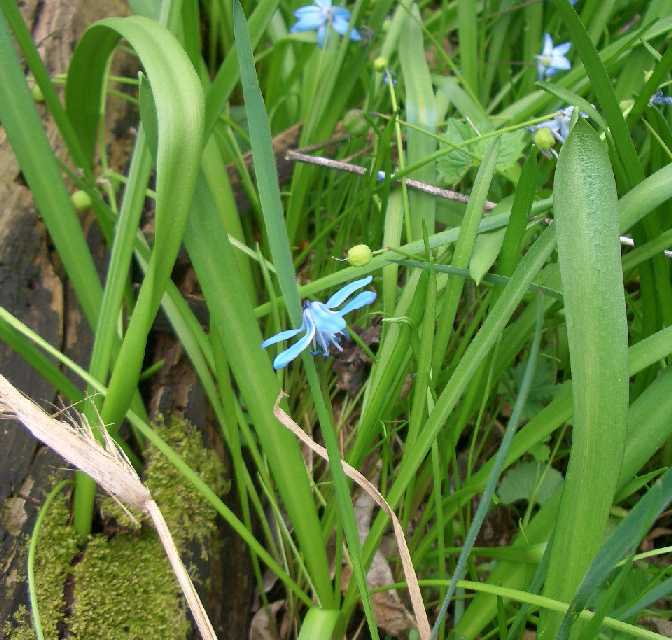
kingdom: Plantae
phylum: Tracheophyta
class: Liliopsida
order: Asparagales
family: Asparagaceae
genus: Scilla
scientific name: Scilla siberica
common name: Siberian squill
